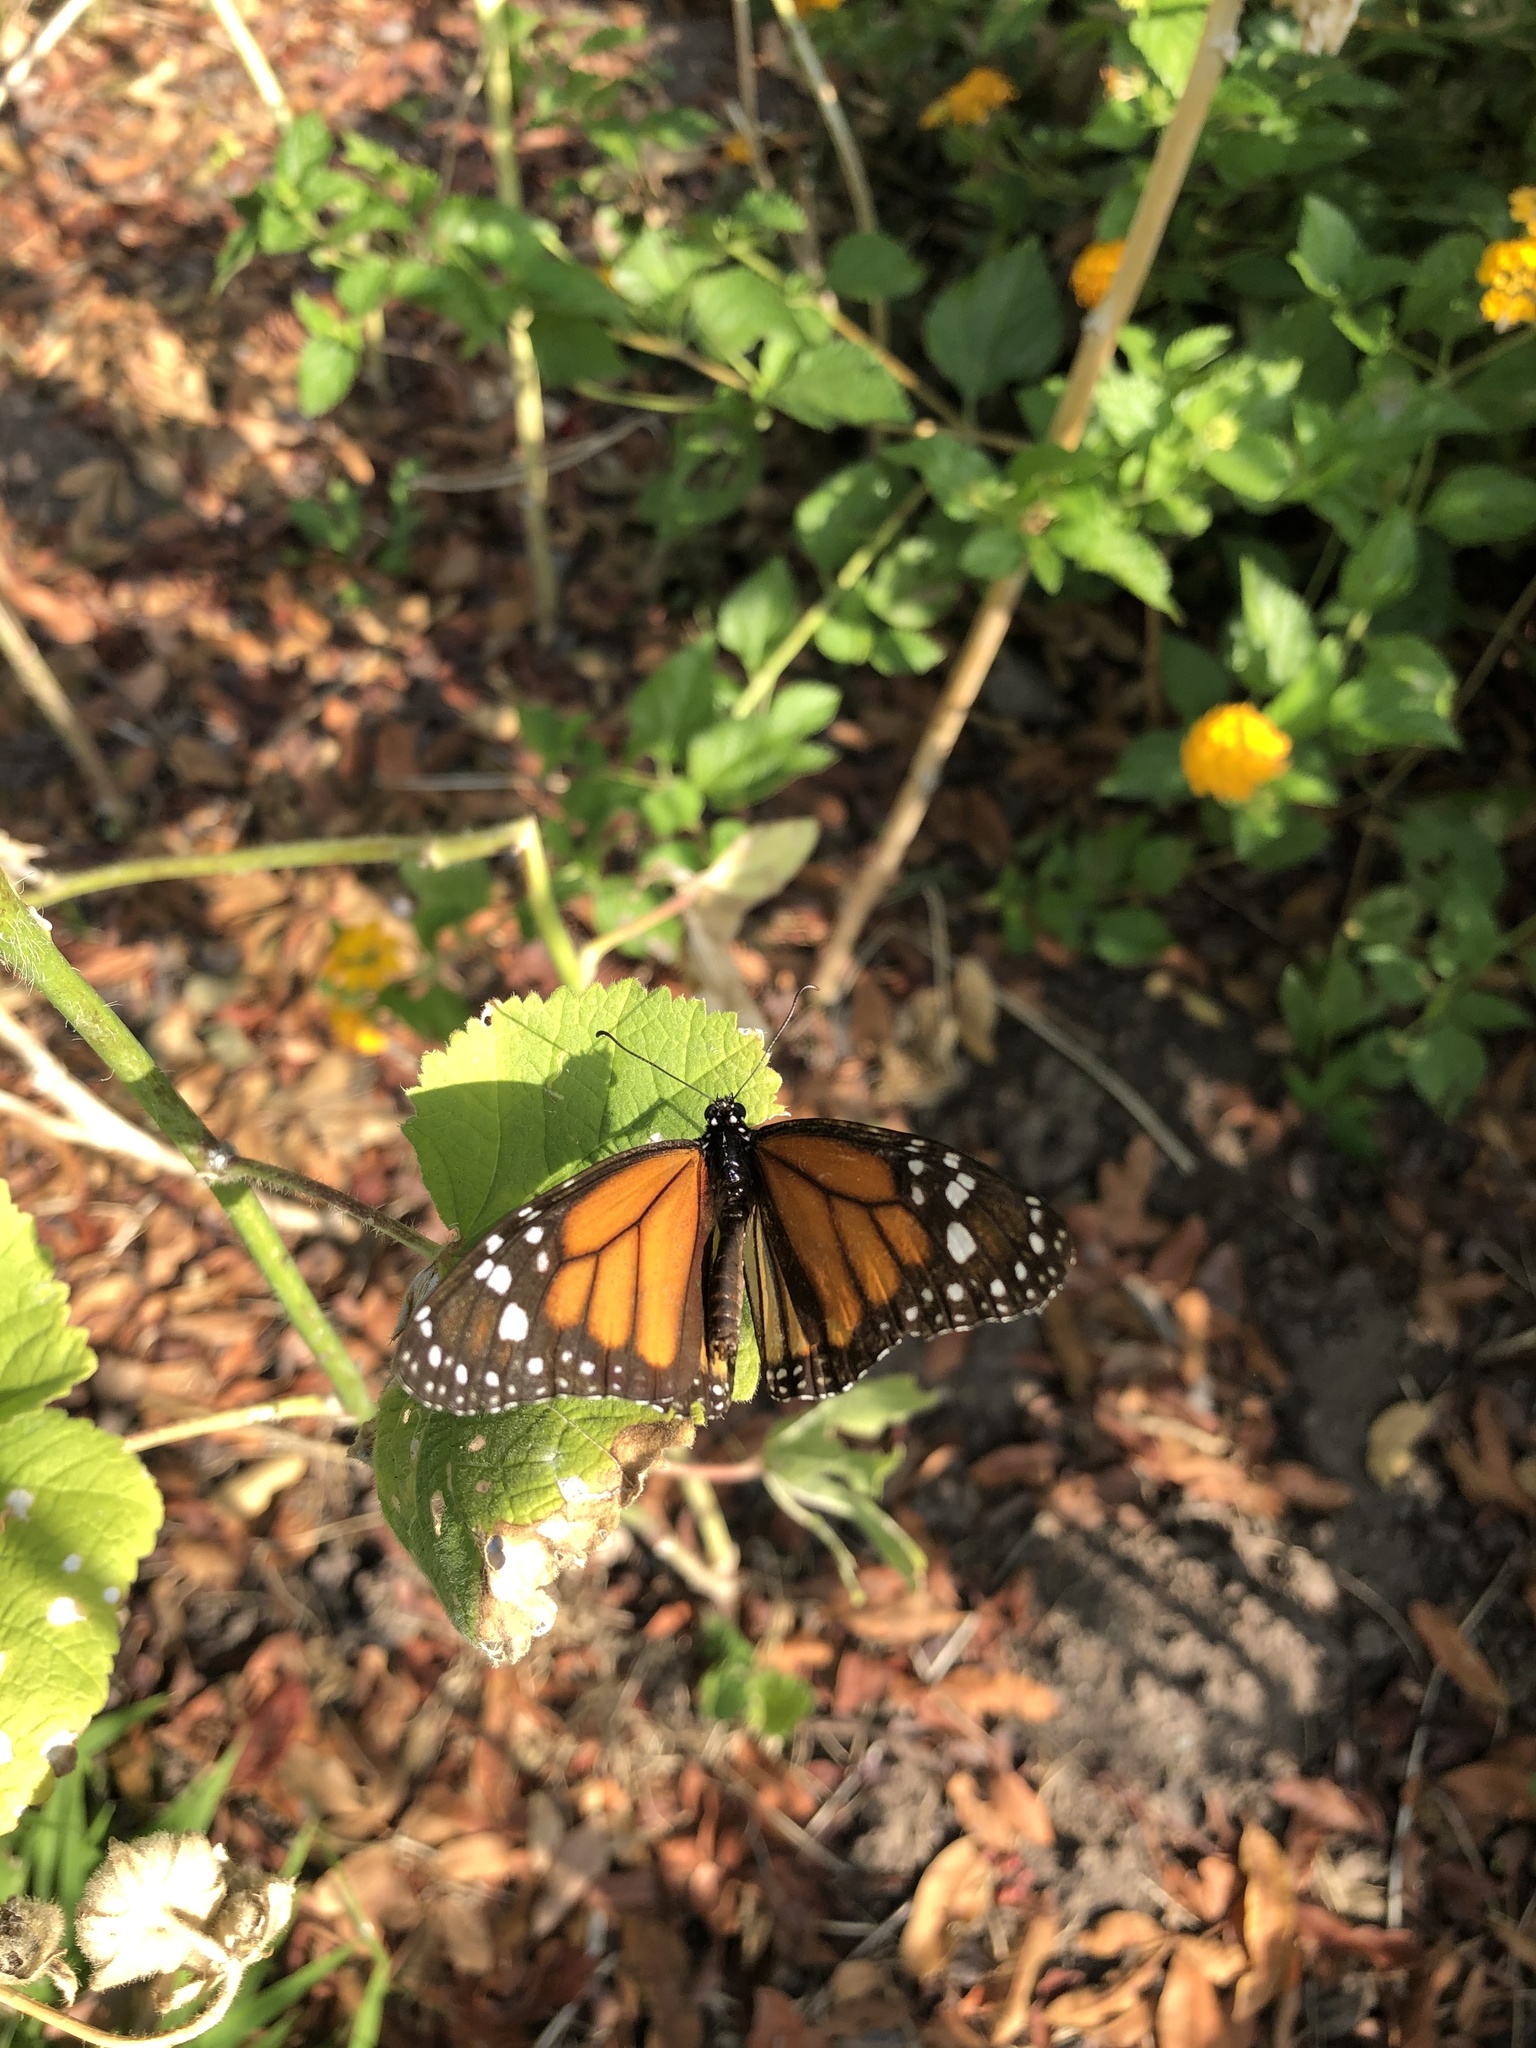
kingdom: Animalia
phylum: Arthropoda
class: Insecta
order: Lepidoptera
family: Nymphalidae
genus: Danaus
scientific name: Danaus plexippus
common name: Monarch
